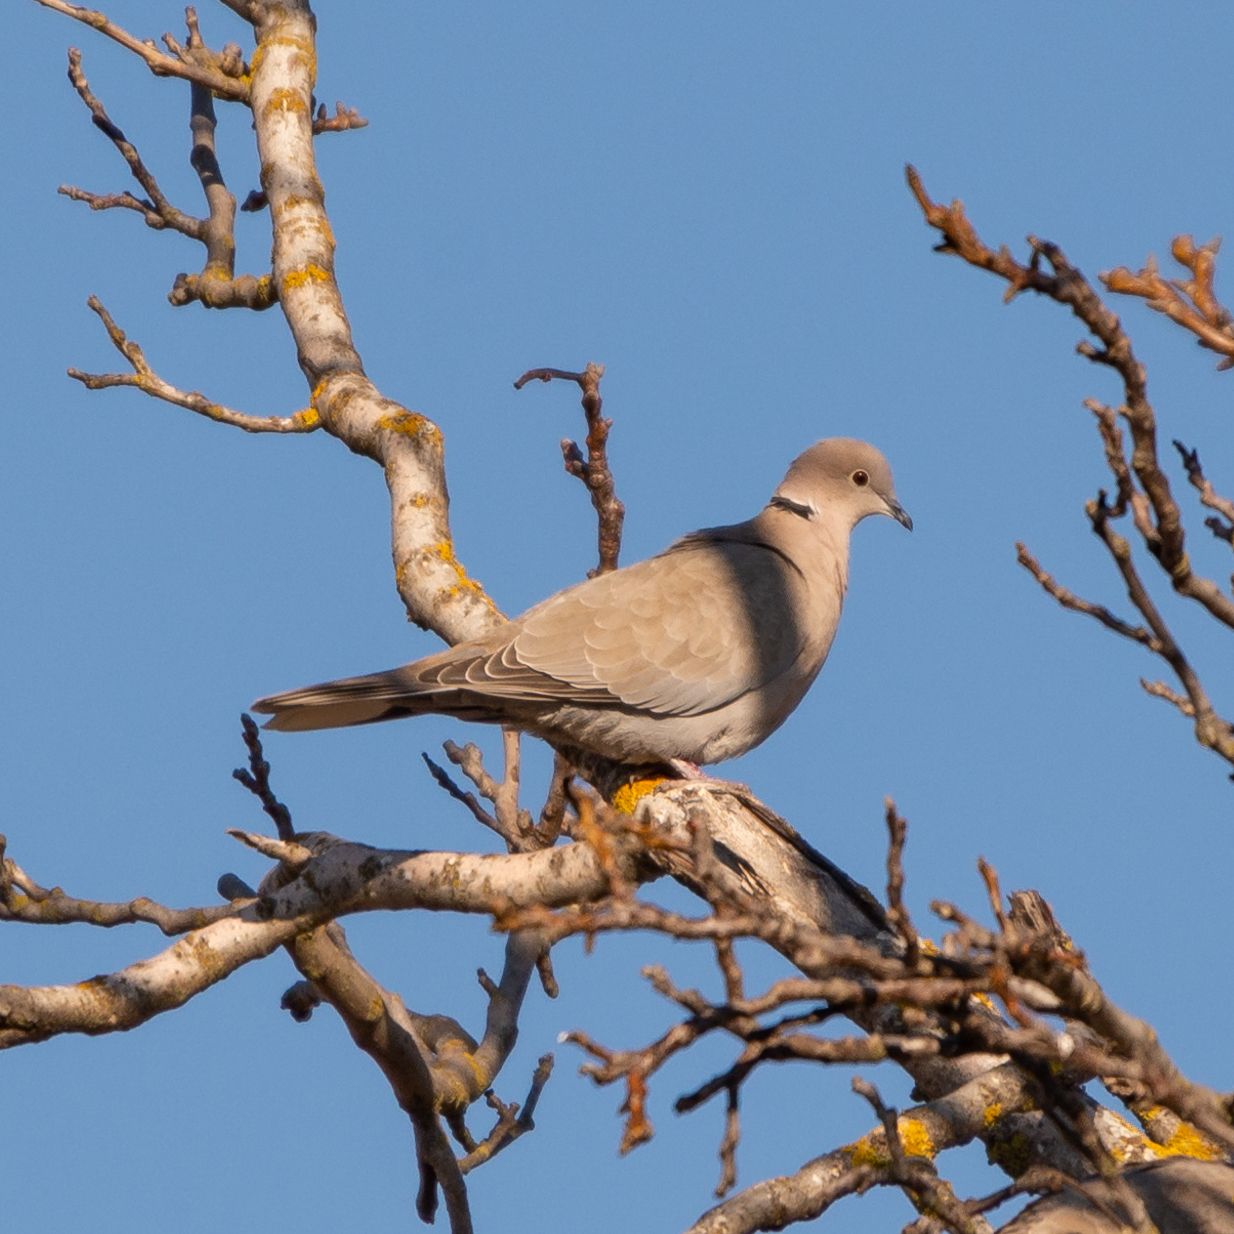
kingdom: Animalia
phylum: Chordata
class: Aves
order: Columbiformes
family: Columbidae
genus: Streptopelia
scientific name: Streptopelia decaocto
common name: Eurasian collared dove
